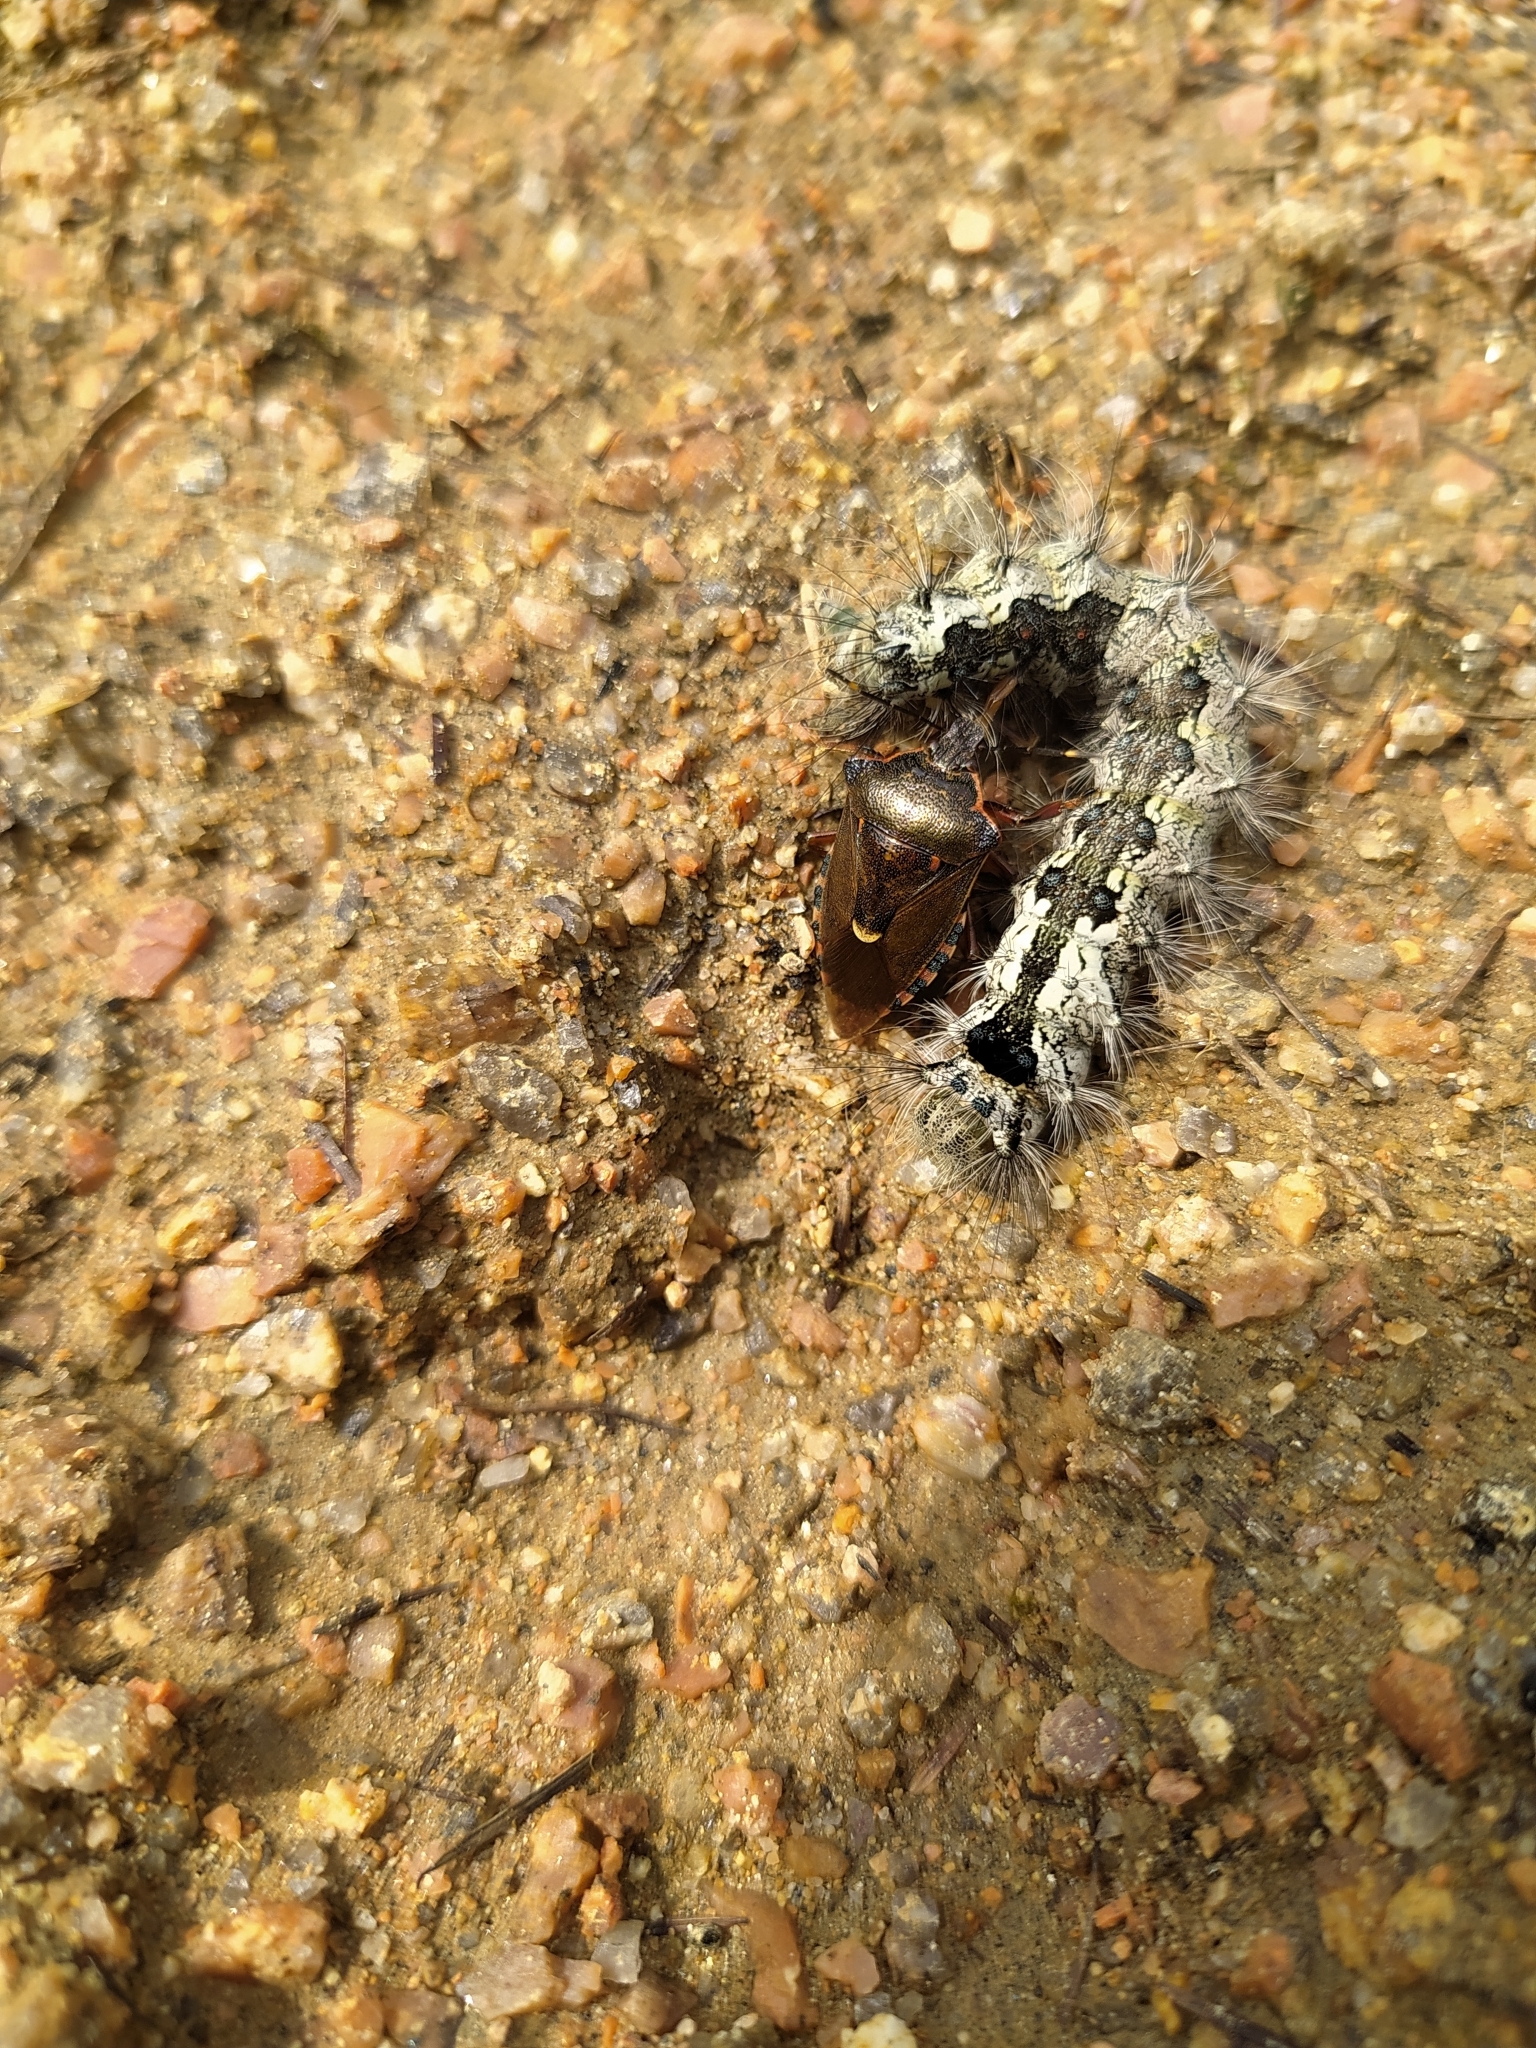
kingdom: Animalia
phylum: Arthropoda
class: Insecta
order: Hemiptera
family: Pentatomidae
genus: Pinthaeus
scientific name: Pinthaeus sanguinipes
